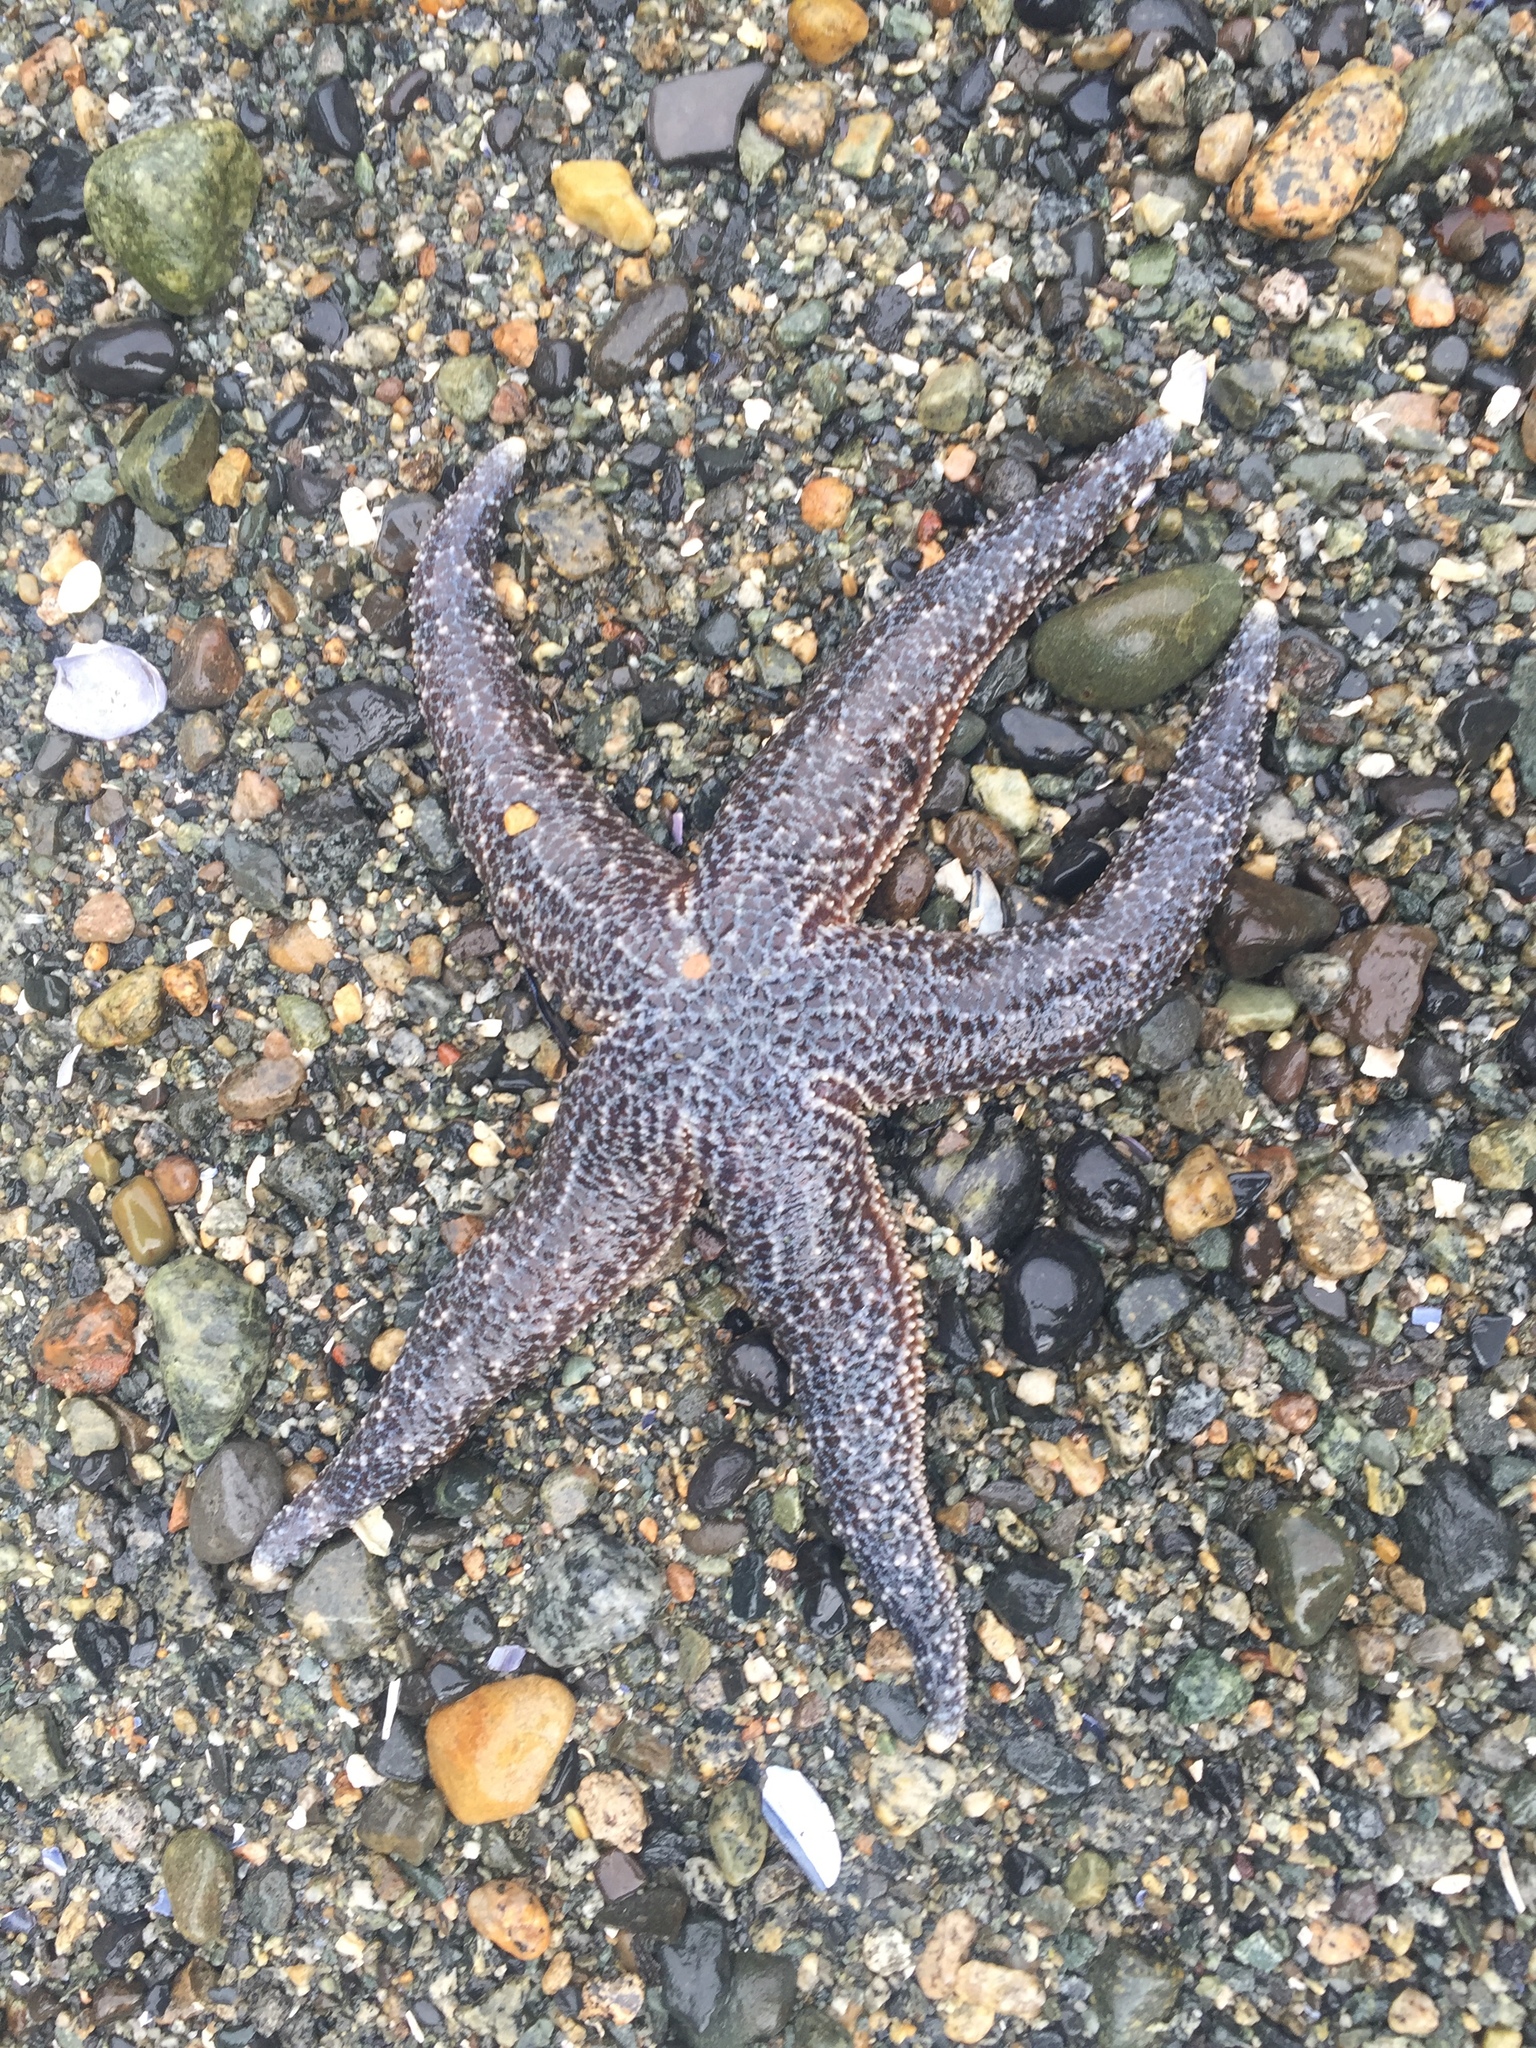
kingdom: Animalia
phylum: Echinodermata
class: Asteroidea
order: Forcipulatida
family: Asteriidae
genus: Evasterias
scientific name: Evasterias troschelii
